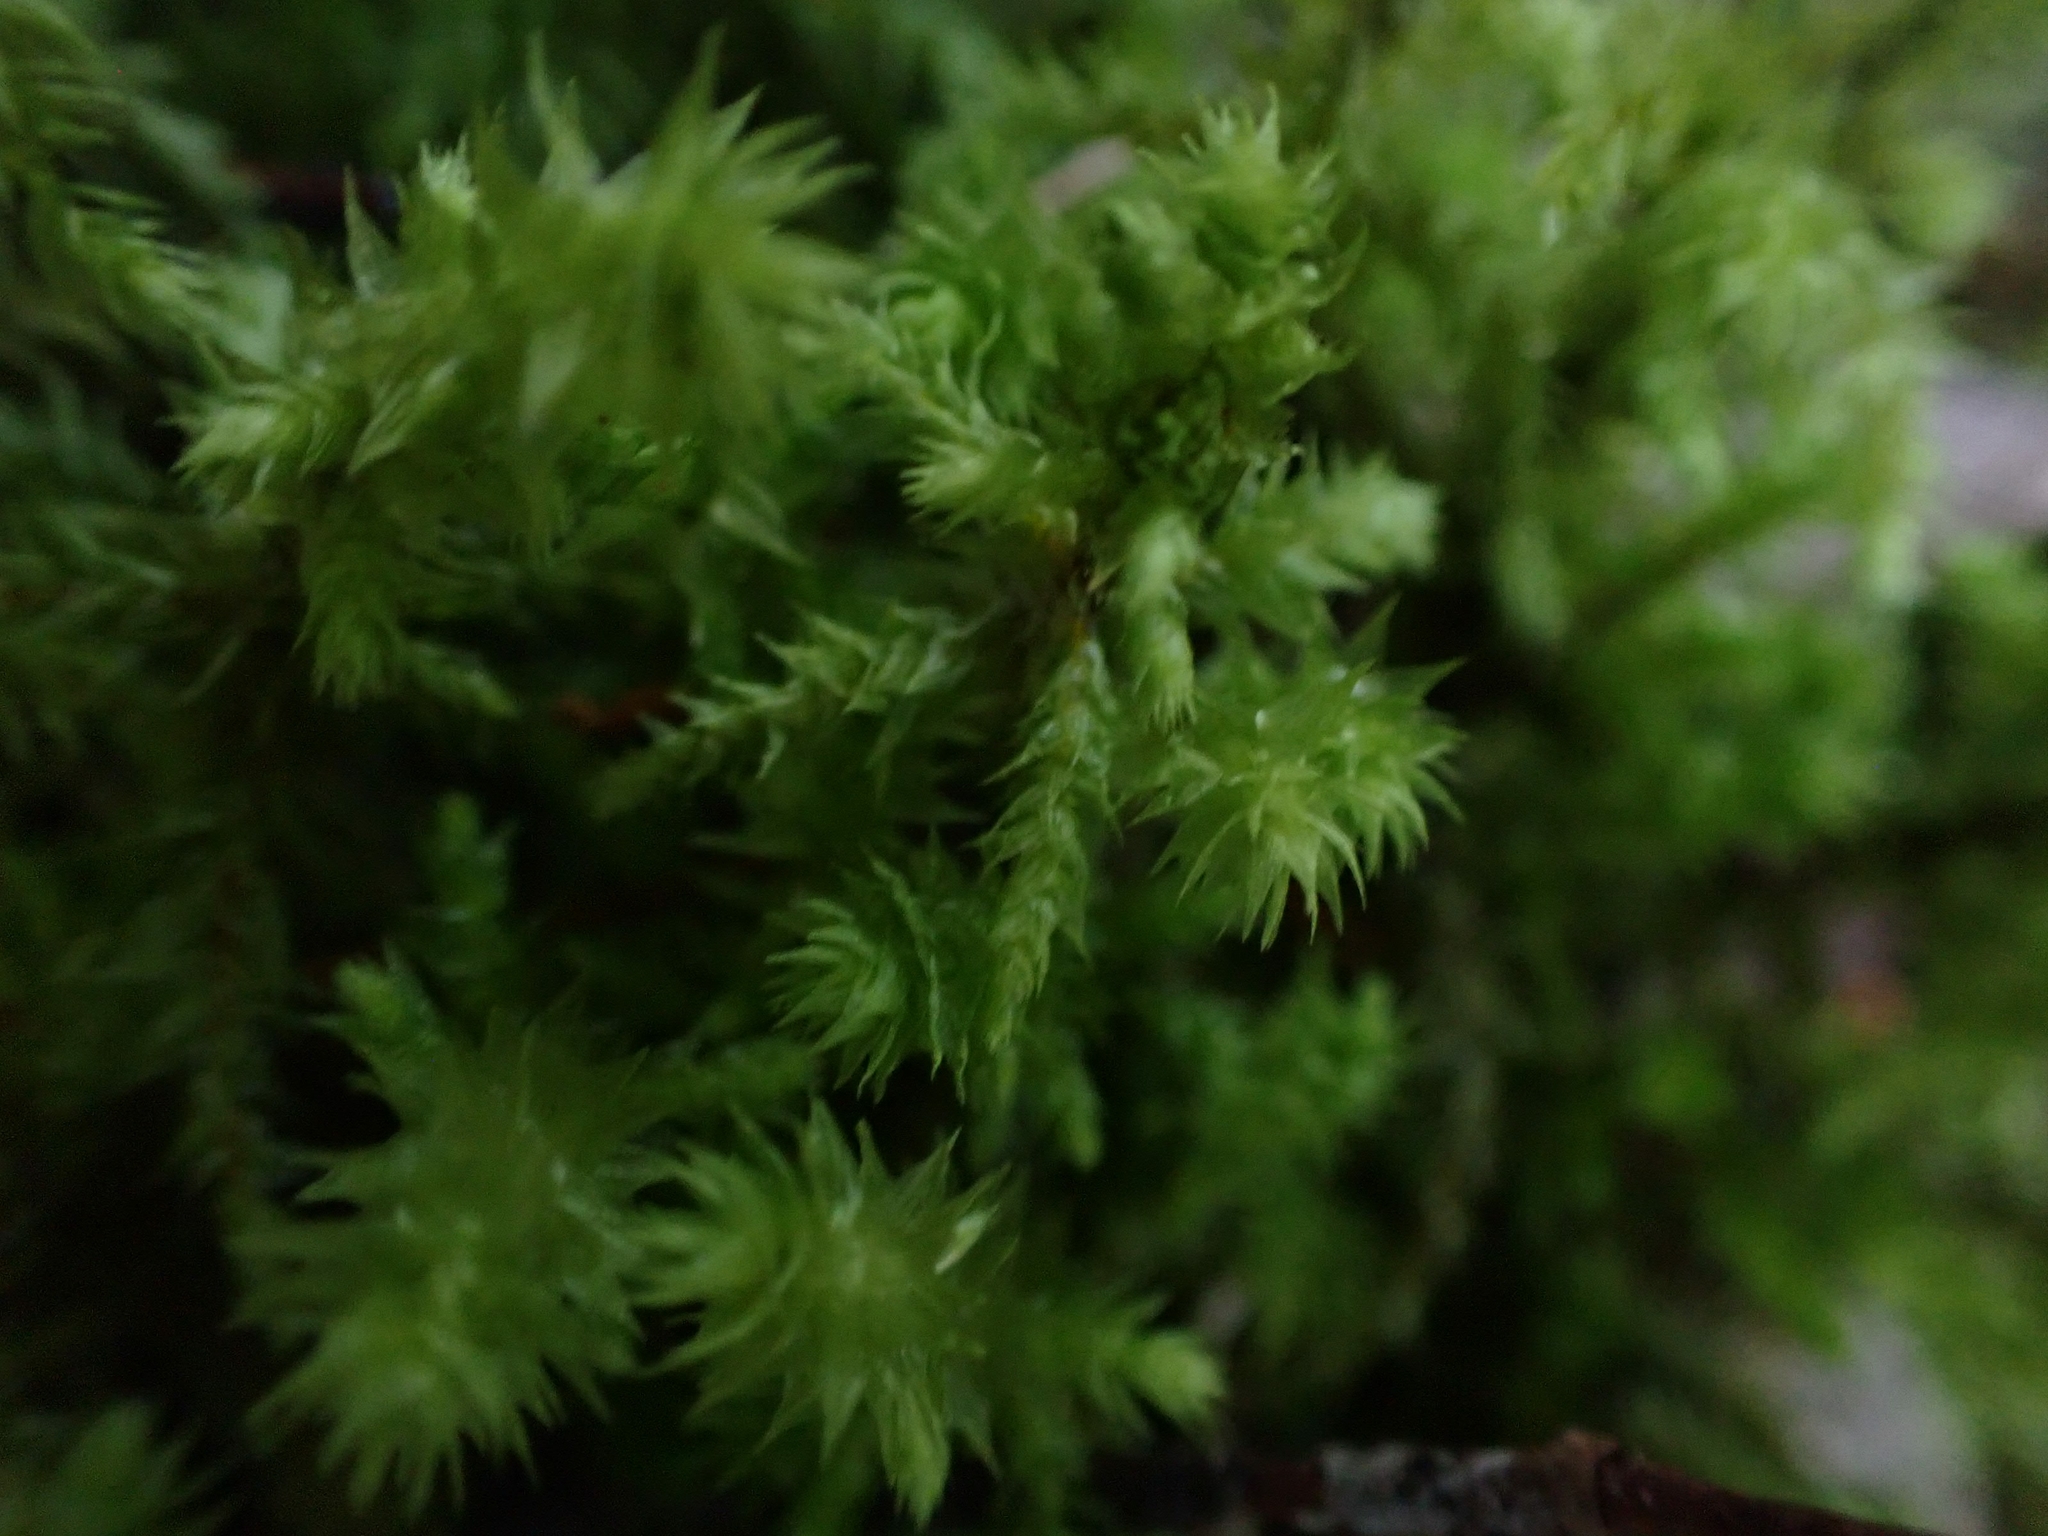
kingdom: Plantae
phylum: Bryophyta
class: Bryopsida
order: Hypnales
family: Hylocomiaceae
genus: Hylocomiadelphus
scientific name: Hylocomiadelphus triquetrus
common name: Rough goose neck moss
